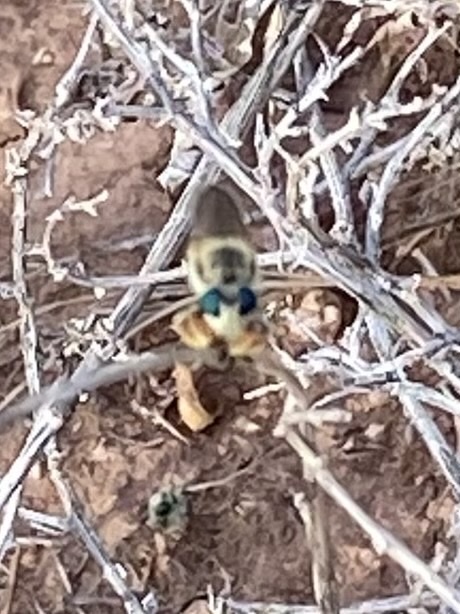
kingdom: Animalia
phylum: Arthropoda
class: Insecta
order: Diptera
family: Asilidae
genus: Megaphorus
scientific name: Megaphorus pulchrus
